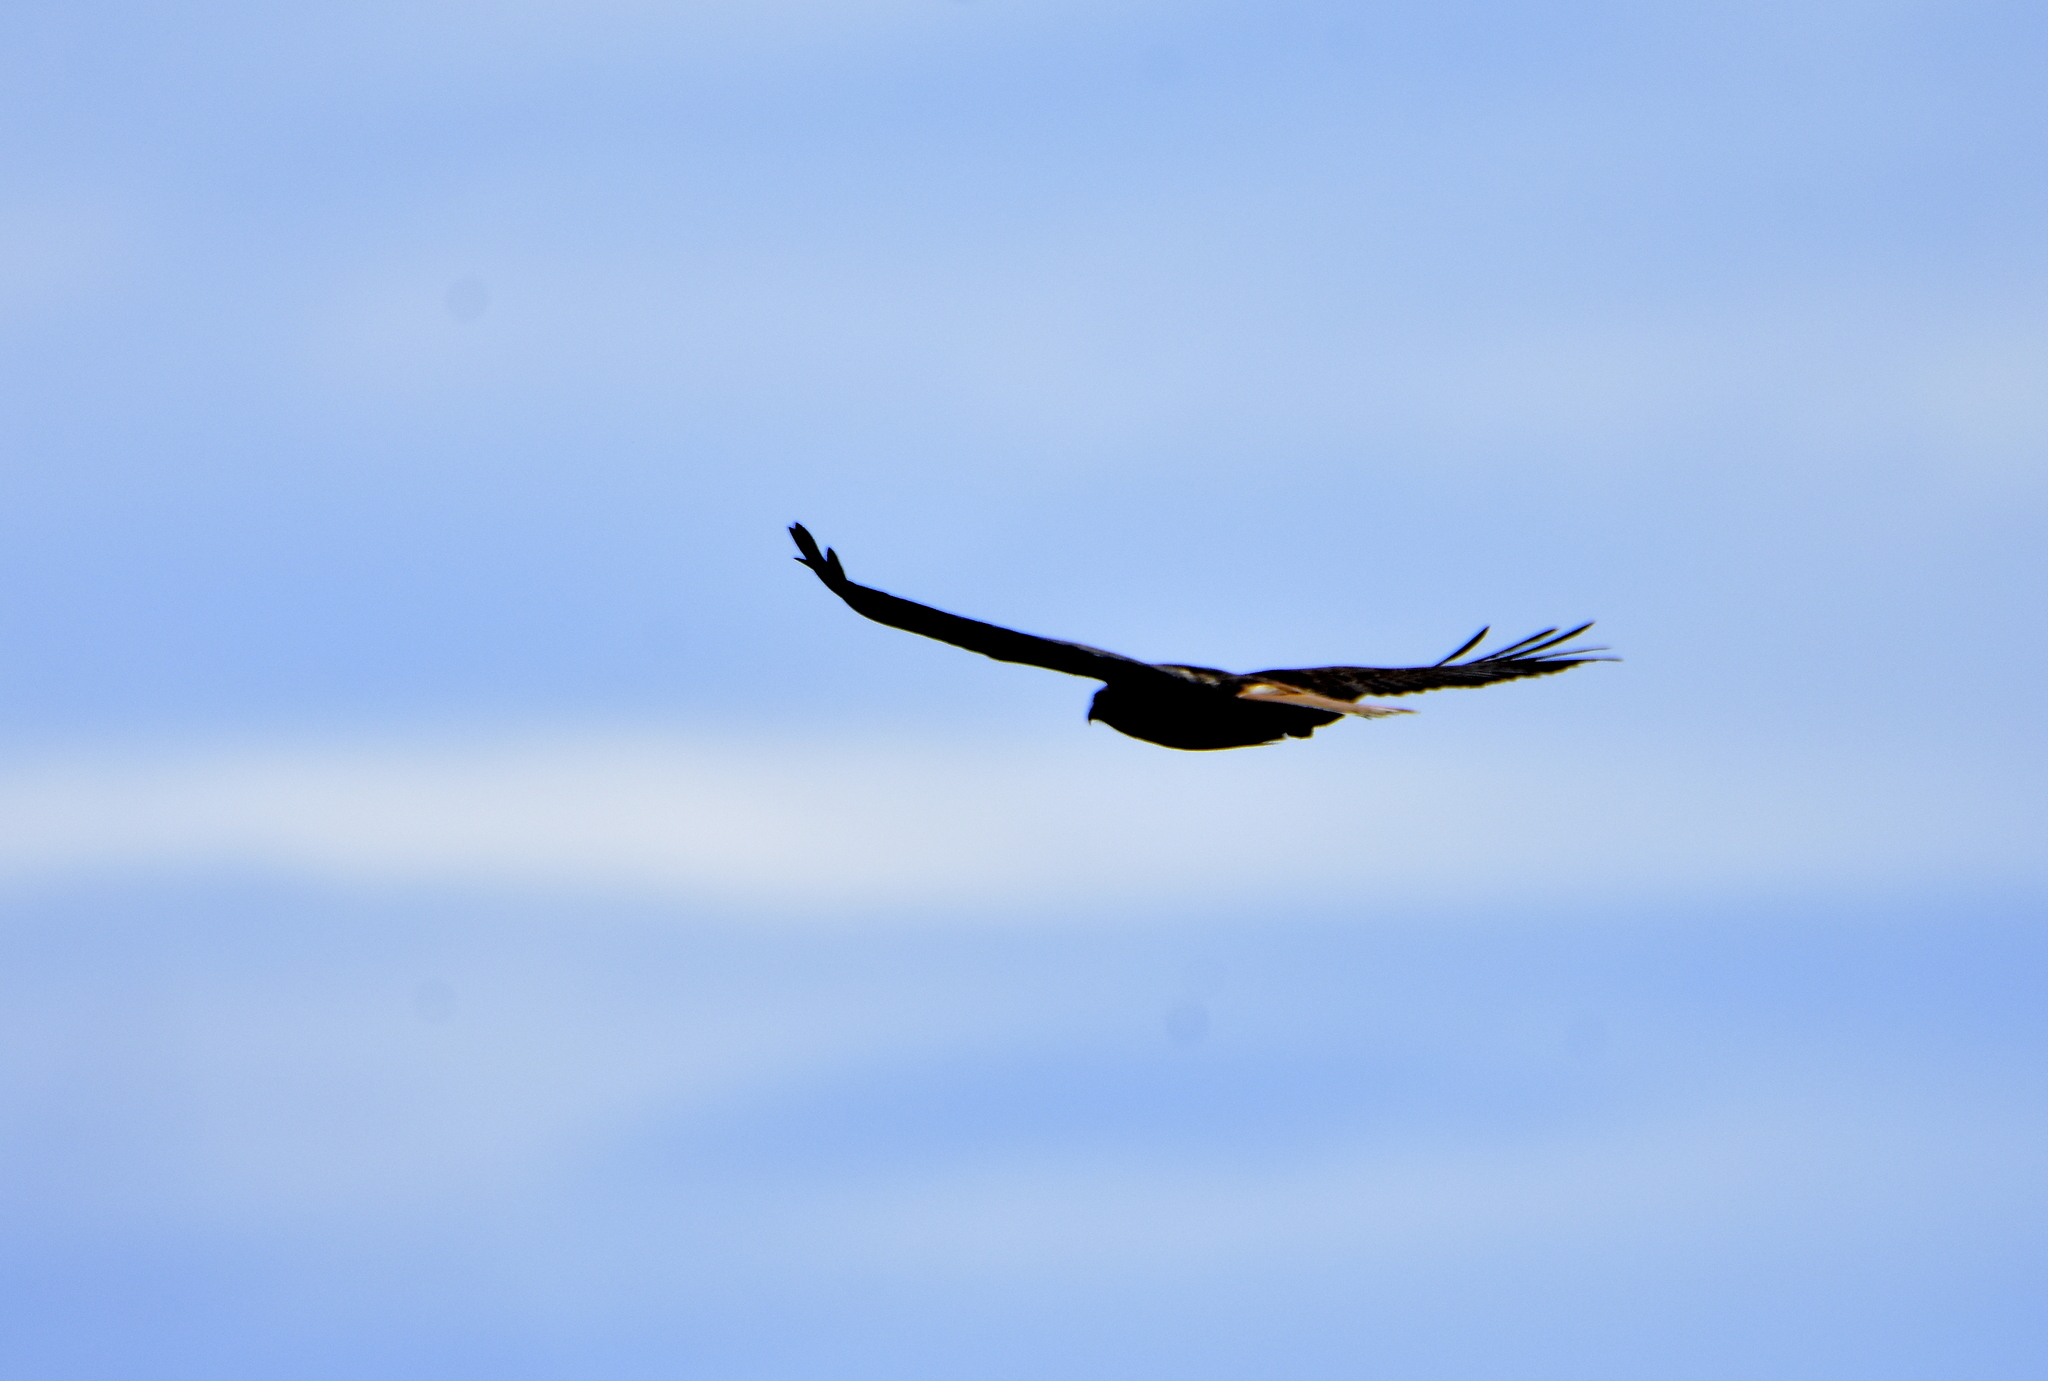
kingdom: Animalia
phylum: Chordata
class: Aves
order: Accipitriformes
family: Accipitridae
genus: Buteo
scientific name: Buteo jamaicensis
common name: Red-tailed hawk
